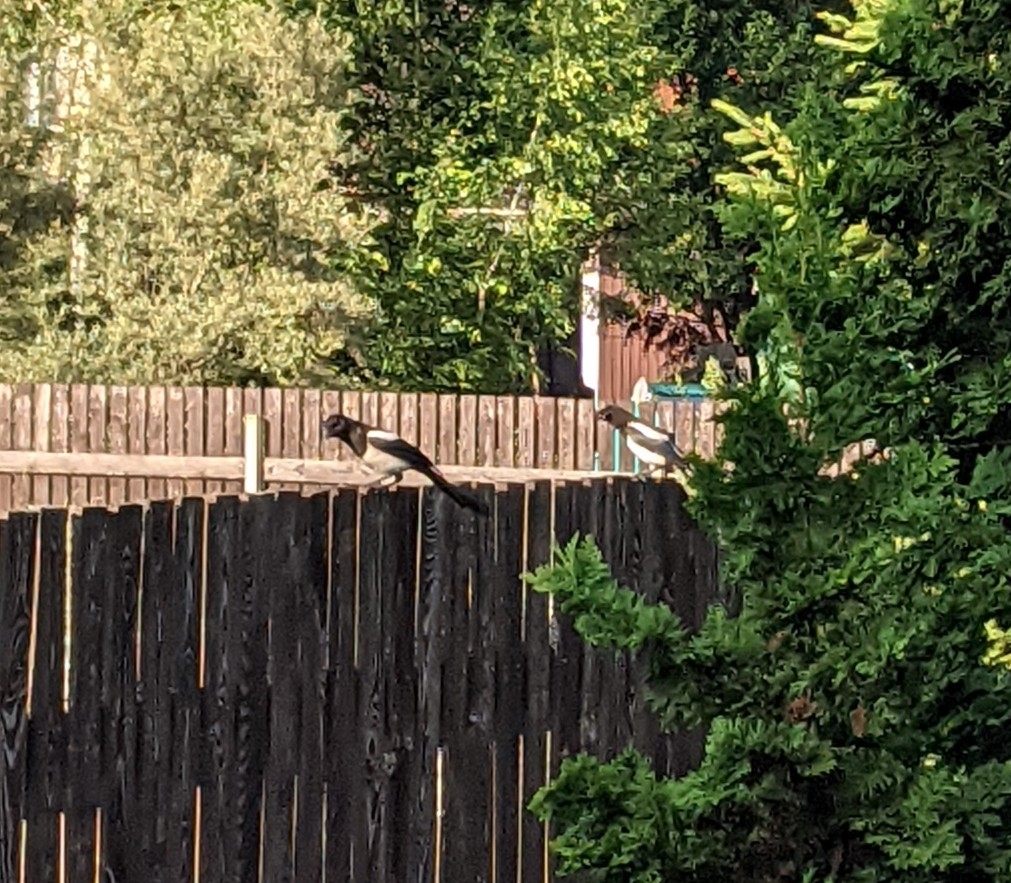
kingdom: Animalia
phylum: Chordata
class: Aves
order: Passeriformes
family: Corvidae
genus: Pica
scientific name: Pica pica
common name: Eurasian magpie
